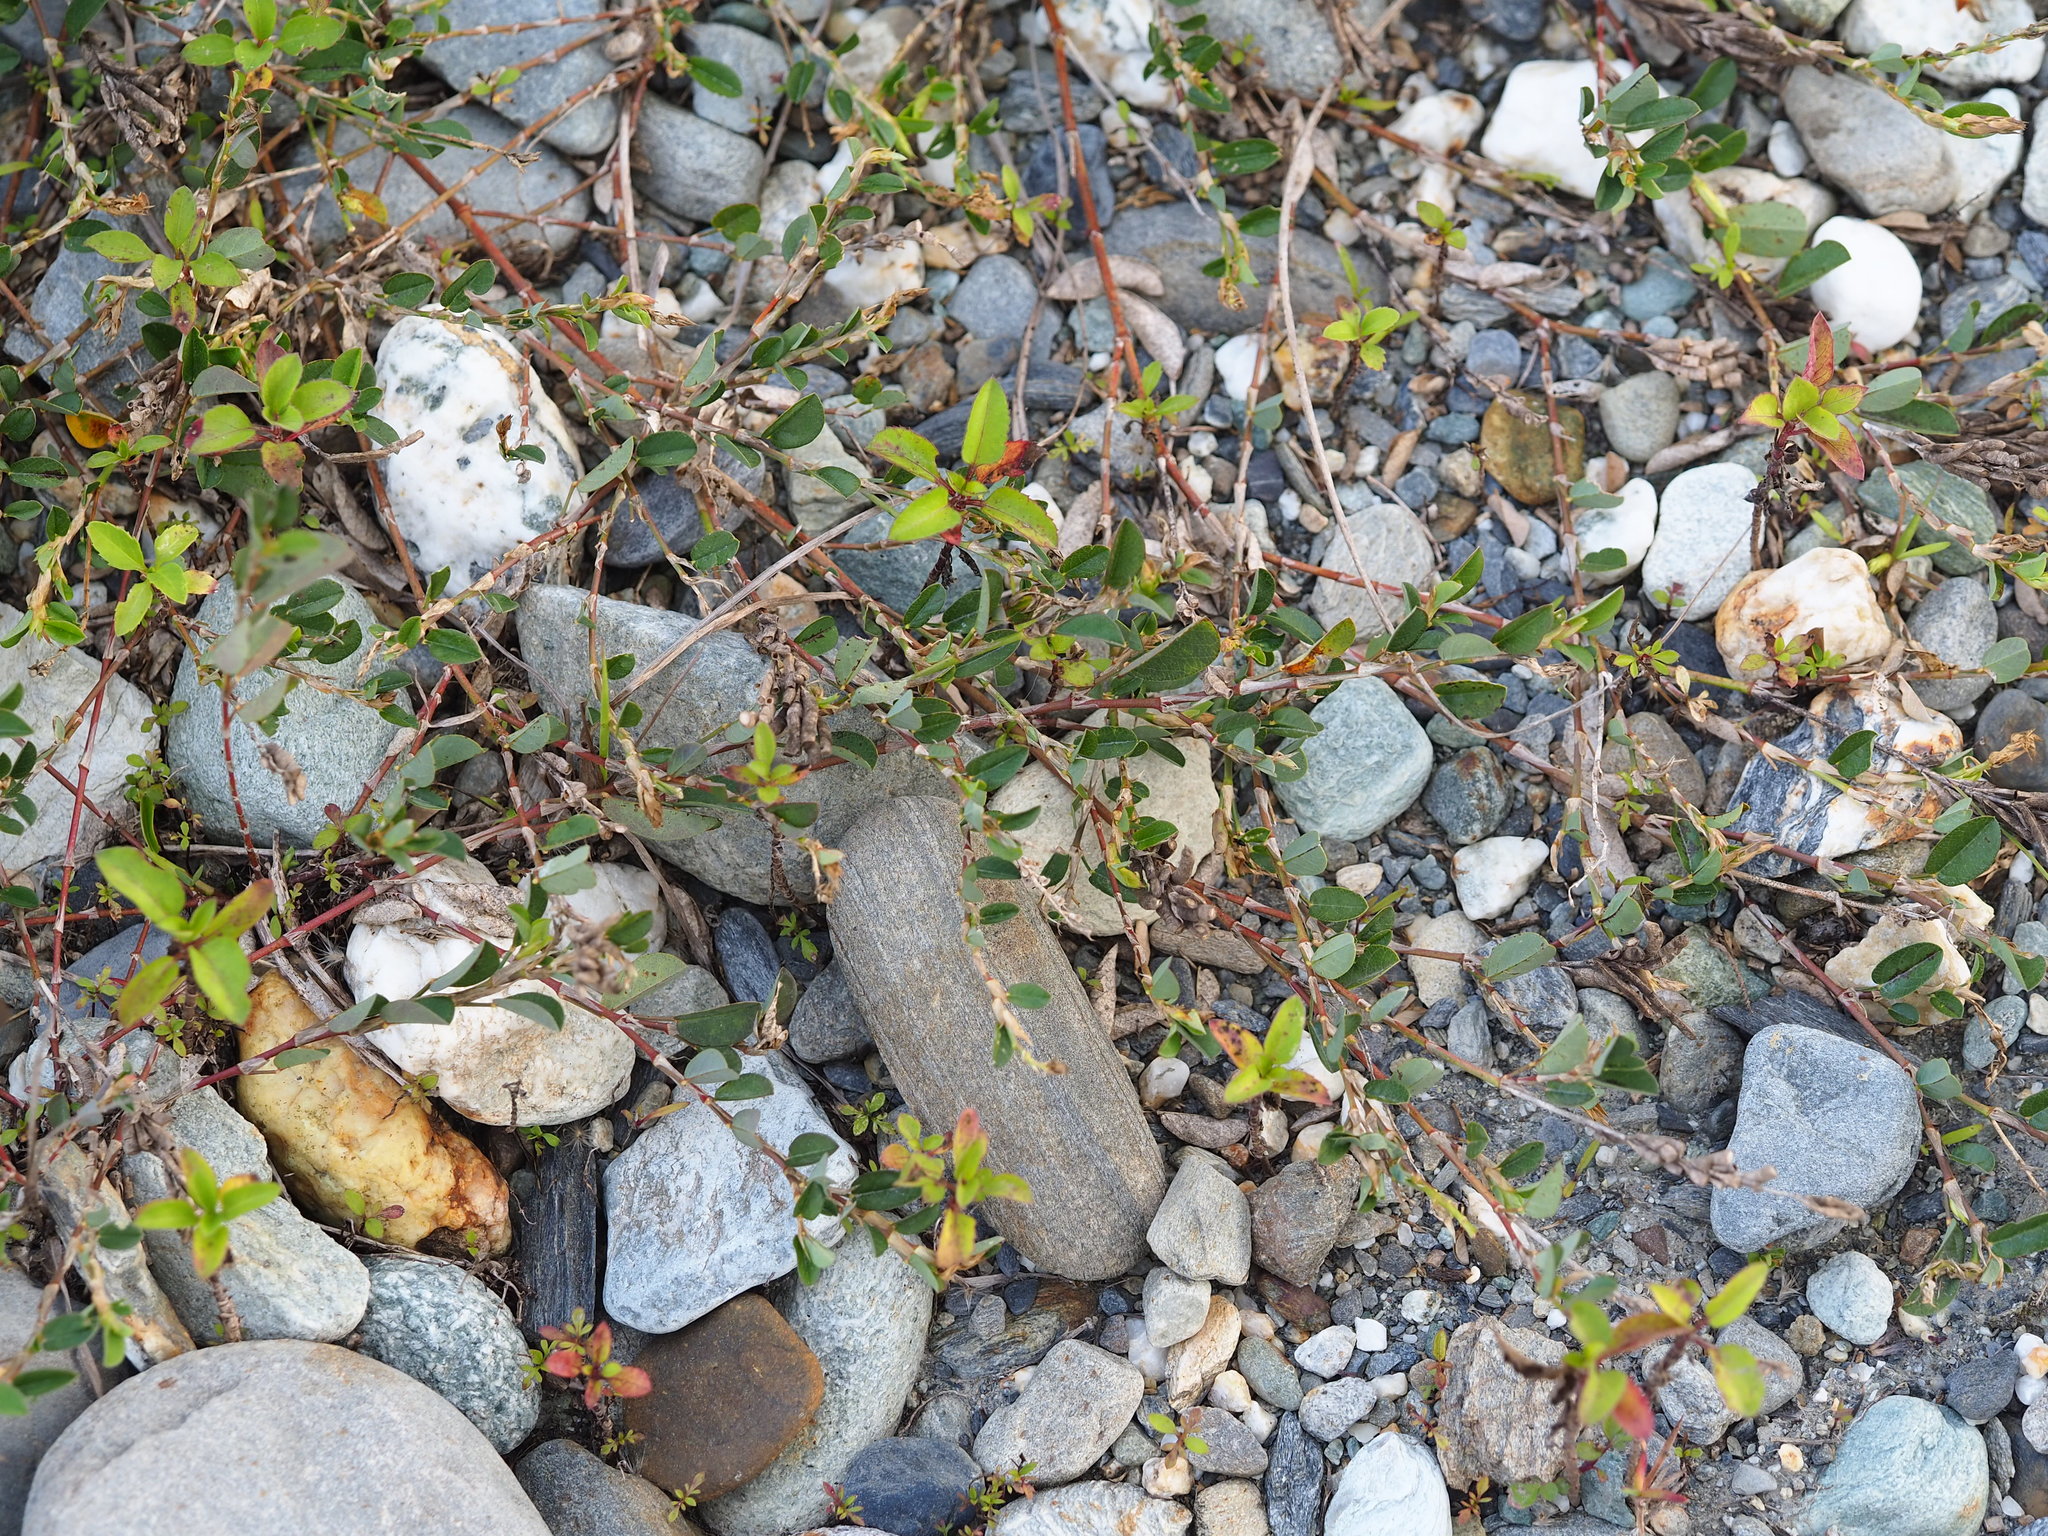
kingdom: Plantae
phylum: Tracheophyta
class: Magnoliopsida
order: Fabales
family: Fabaceae
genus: Alysicarpus
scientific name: Alysicarpus vaginalis
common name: White moneywort
